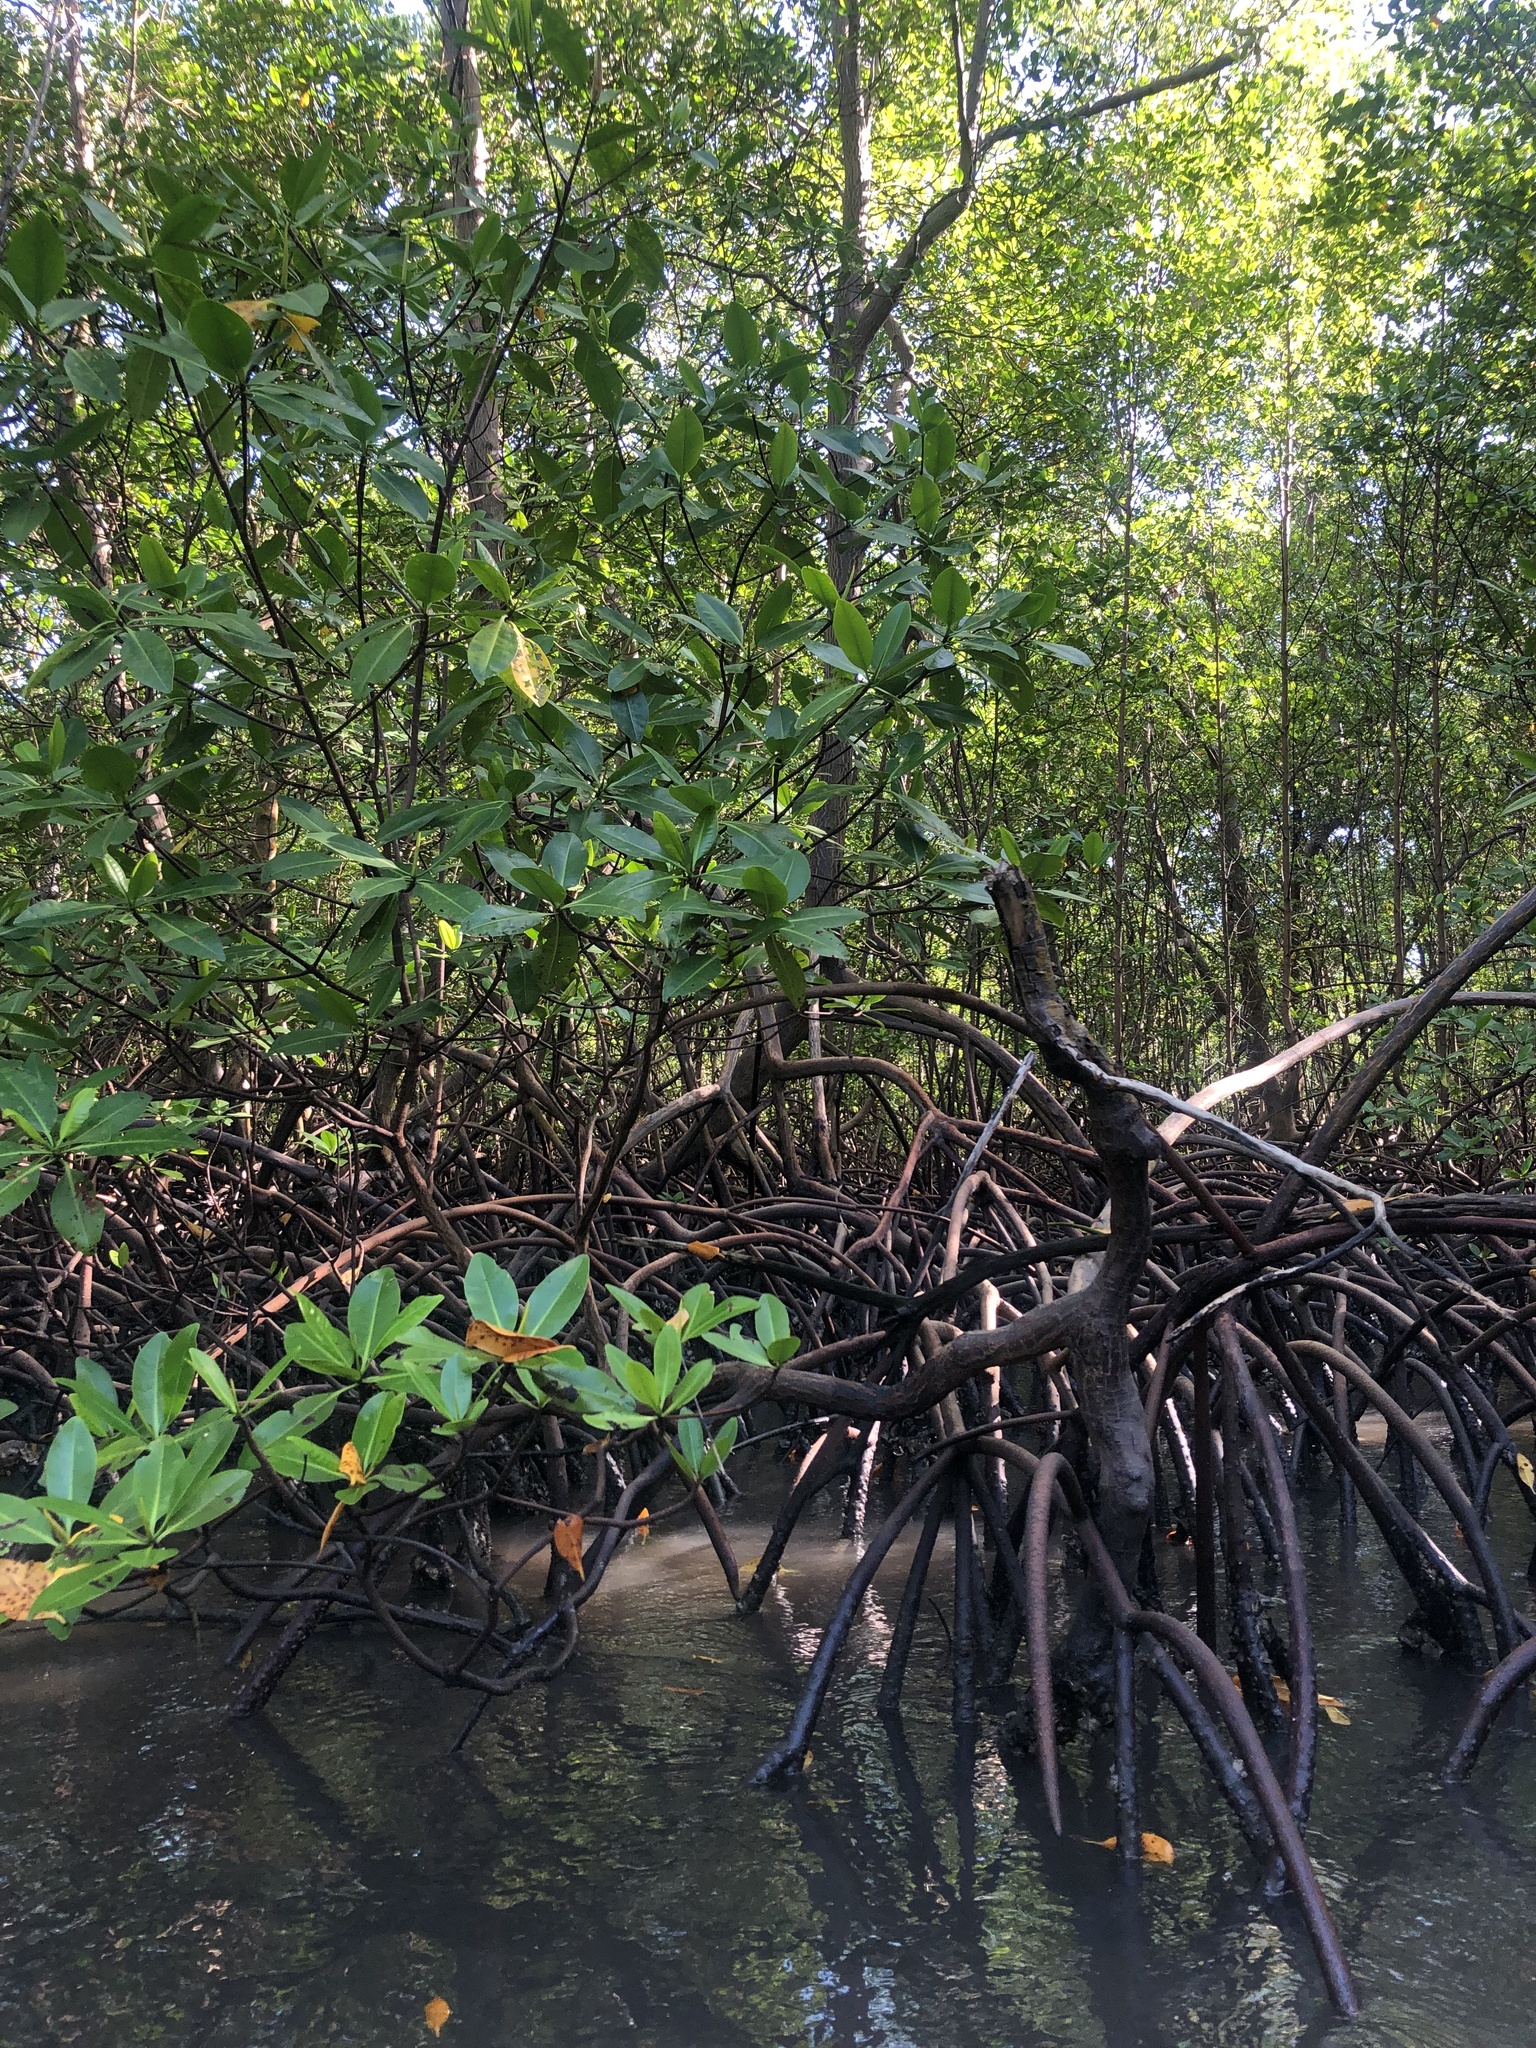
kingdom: Plantae
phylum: Tracheophyta
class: Magnoliopsida
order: Malpighiales
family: Rhizophoraceae
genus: Rhizophora
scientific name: Rhizophora mangle
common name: Red mangrove
